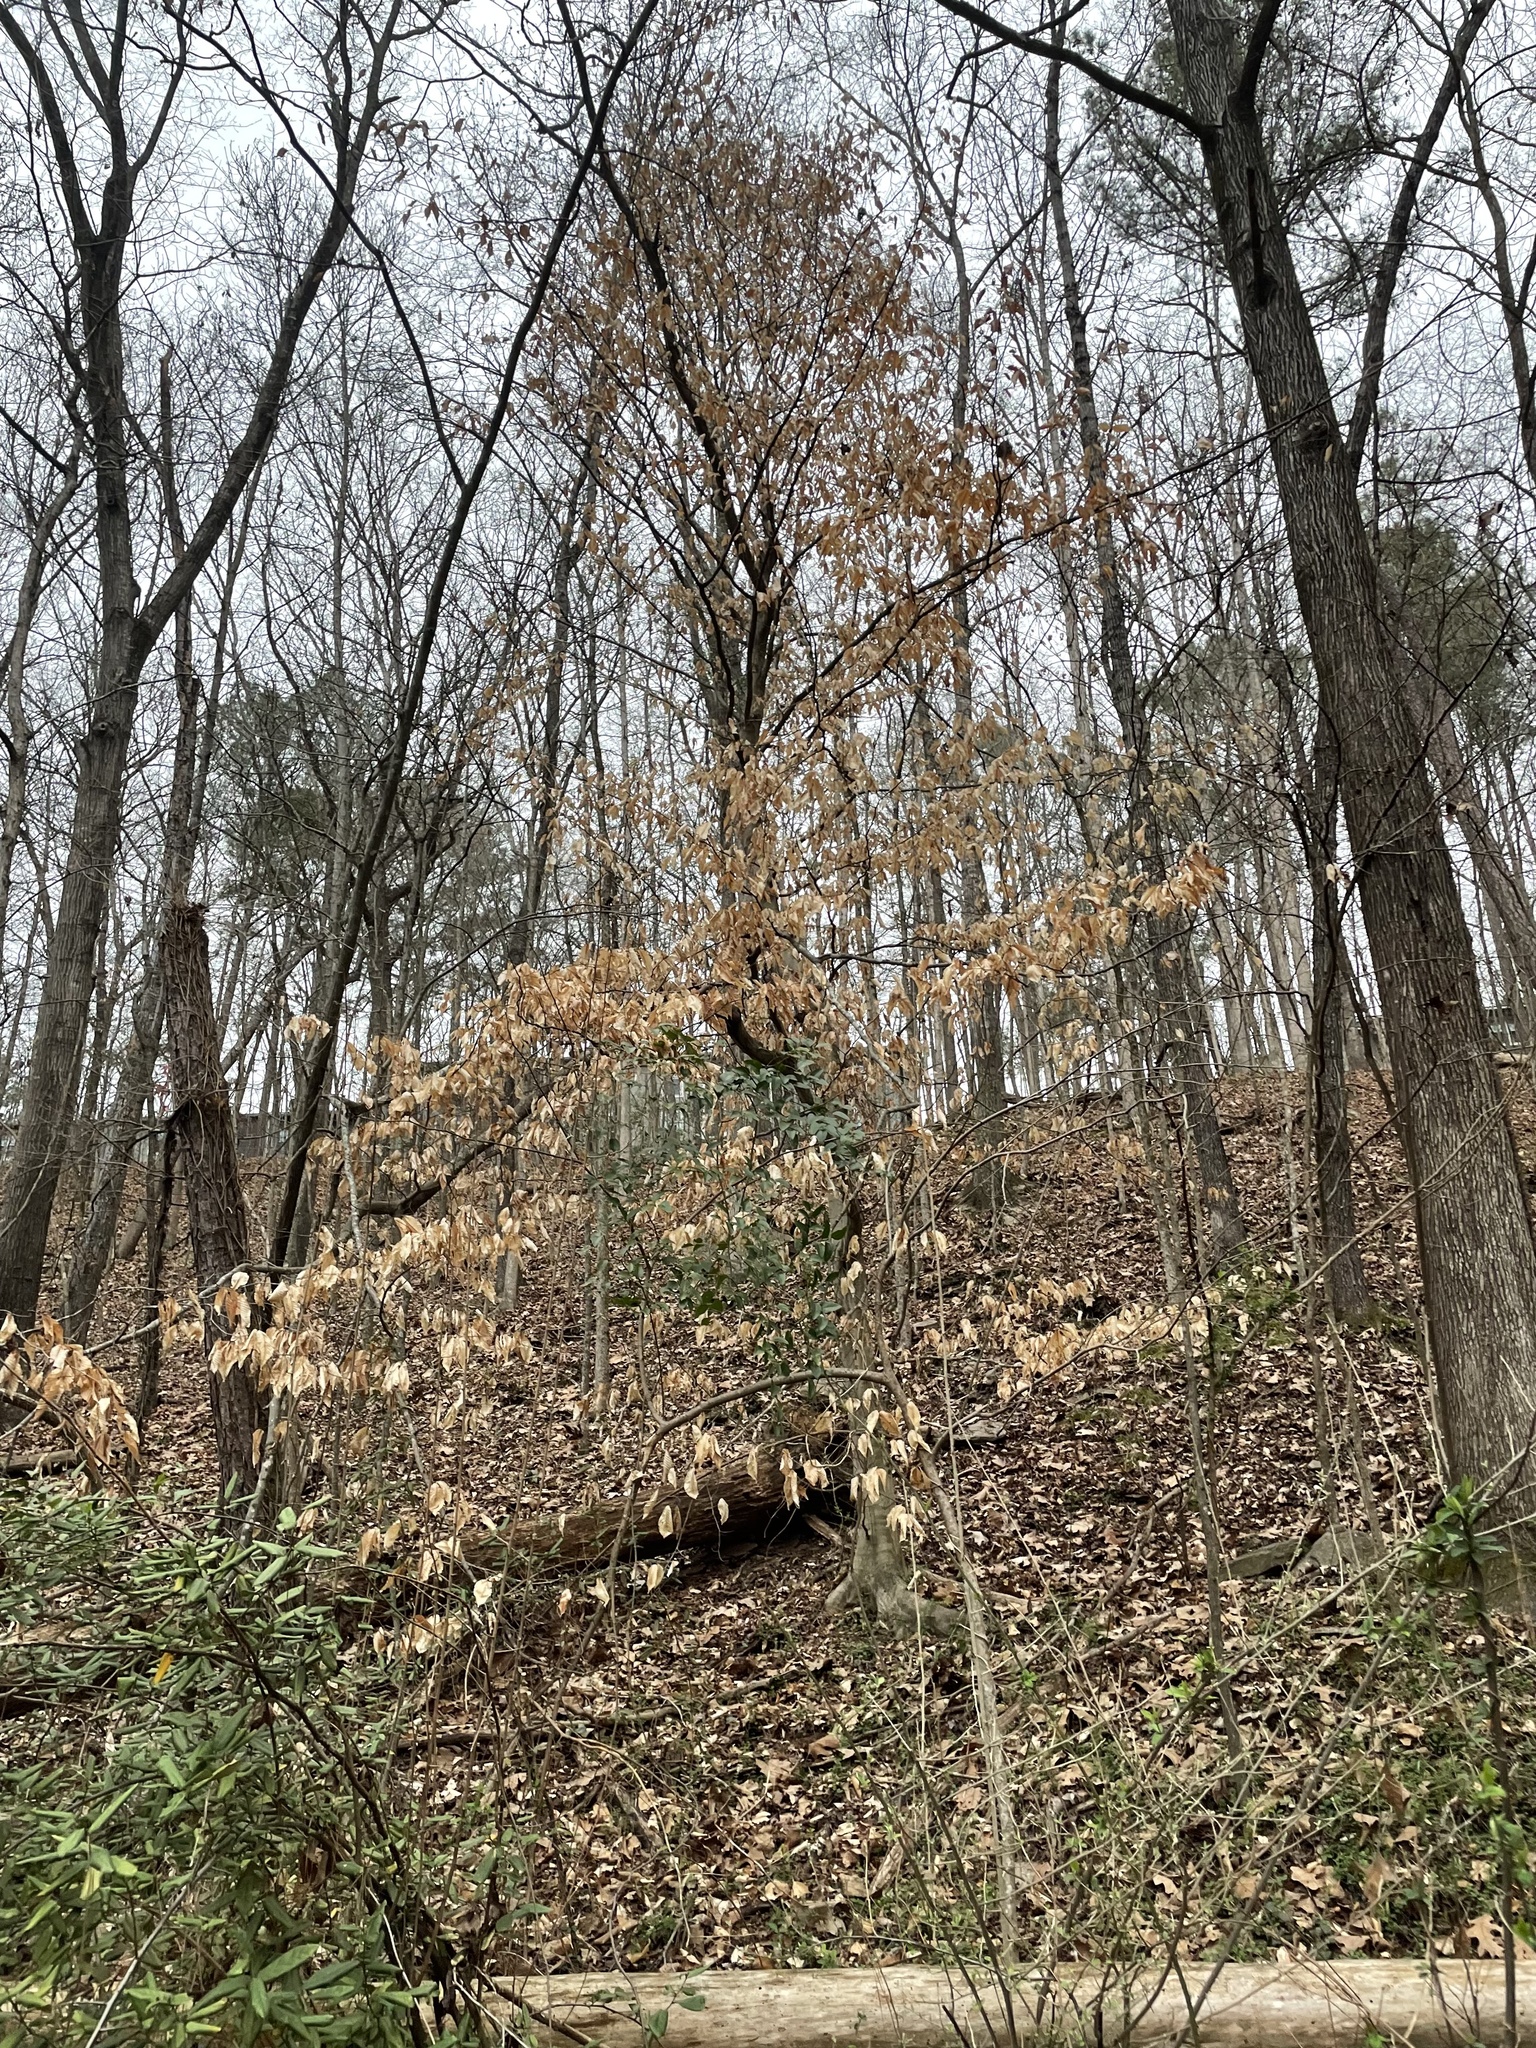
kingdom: Plantae
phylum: Tracheophyta
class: Magnoliopsida
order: Fagales
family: Fagaceae
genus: Fagus
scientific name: Fagus grandifolia
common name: American beech
